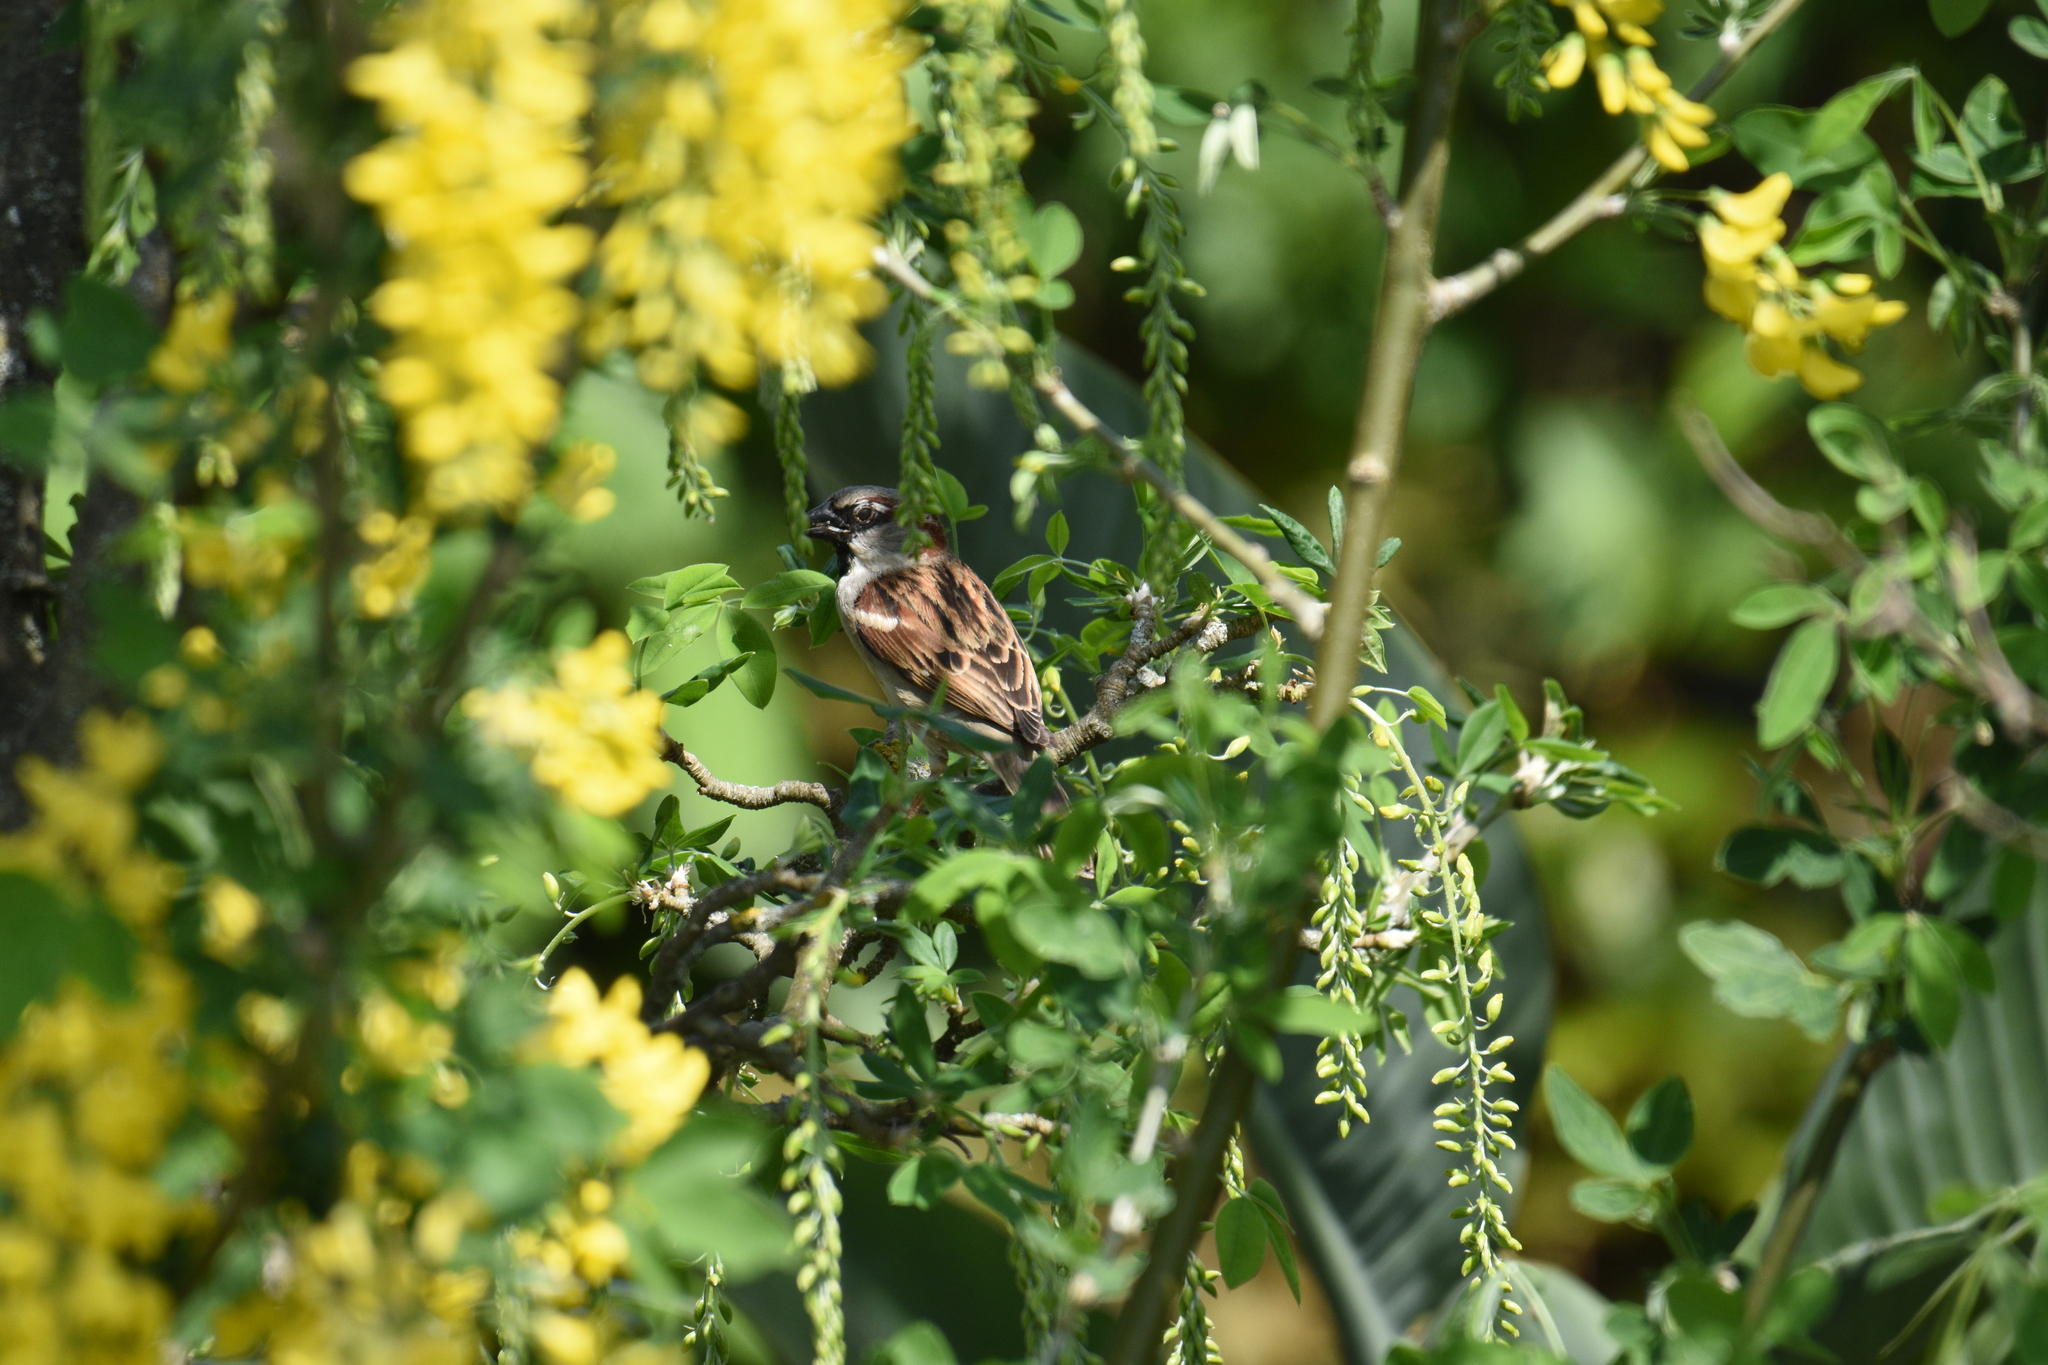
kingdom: Animalia
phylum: Chordata
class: Aves
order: Passeriformes
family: Passeridae
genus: Passer
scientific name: Passer domesticus
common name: House sparrow
